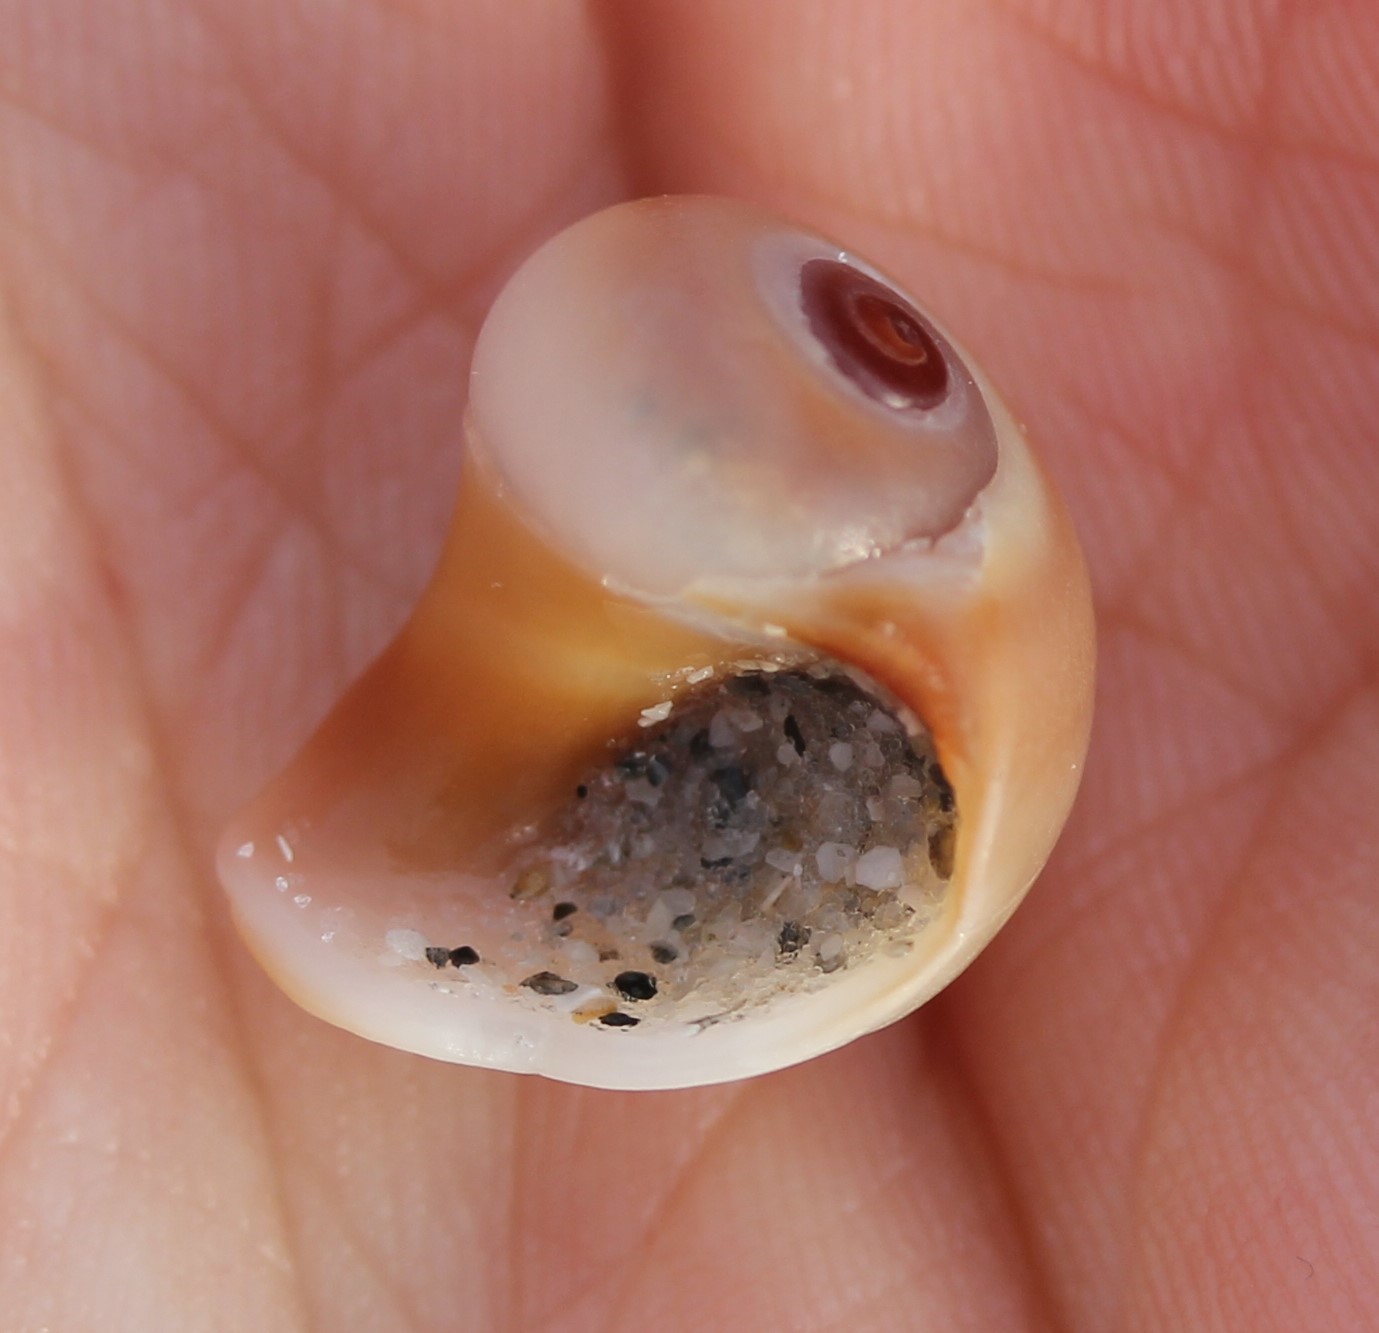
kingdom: Animalia
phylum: Mollusca
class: Gastropoda
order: Littorinimorpha
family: Naticidae
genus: Neverita
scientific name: Neverita
